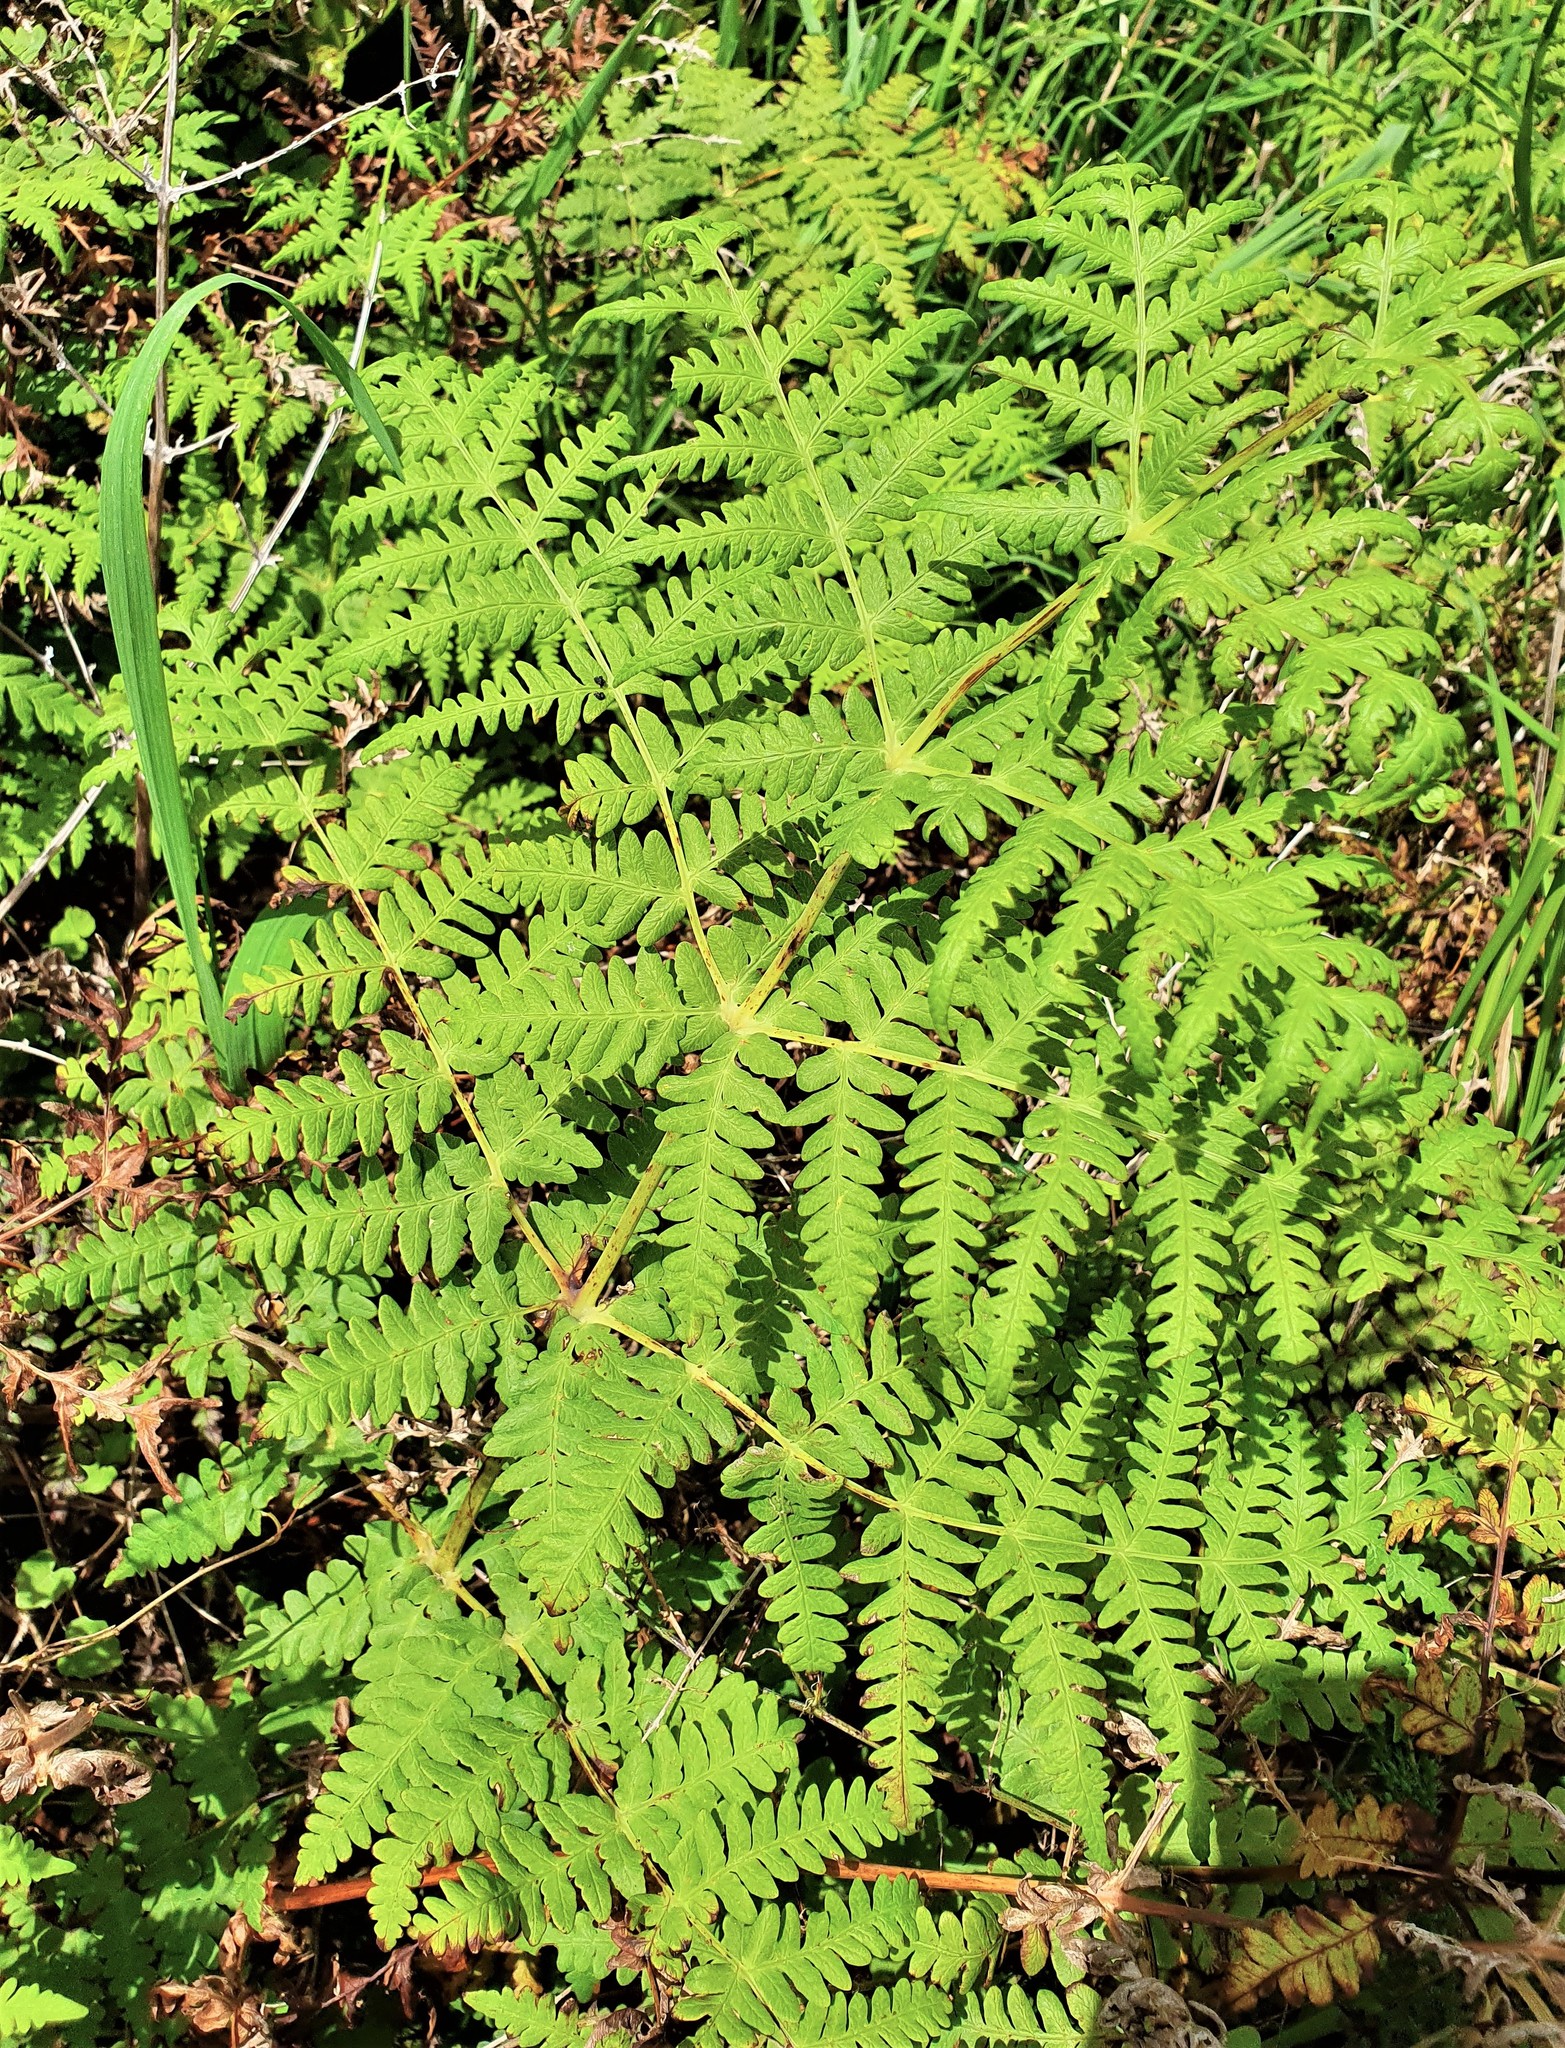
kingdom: Plantae
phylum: Tracheophyta
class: Polypodiopsida
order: Polypodiales
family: Dennstaedtiaceae
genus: Histiopteris
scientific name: Histiopteris incisa
